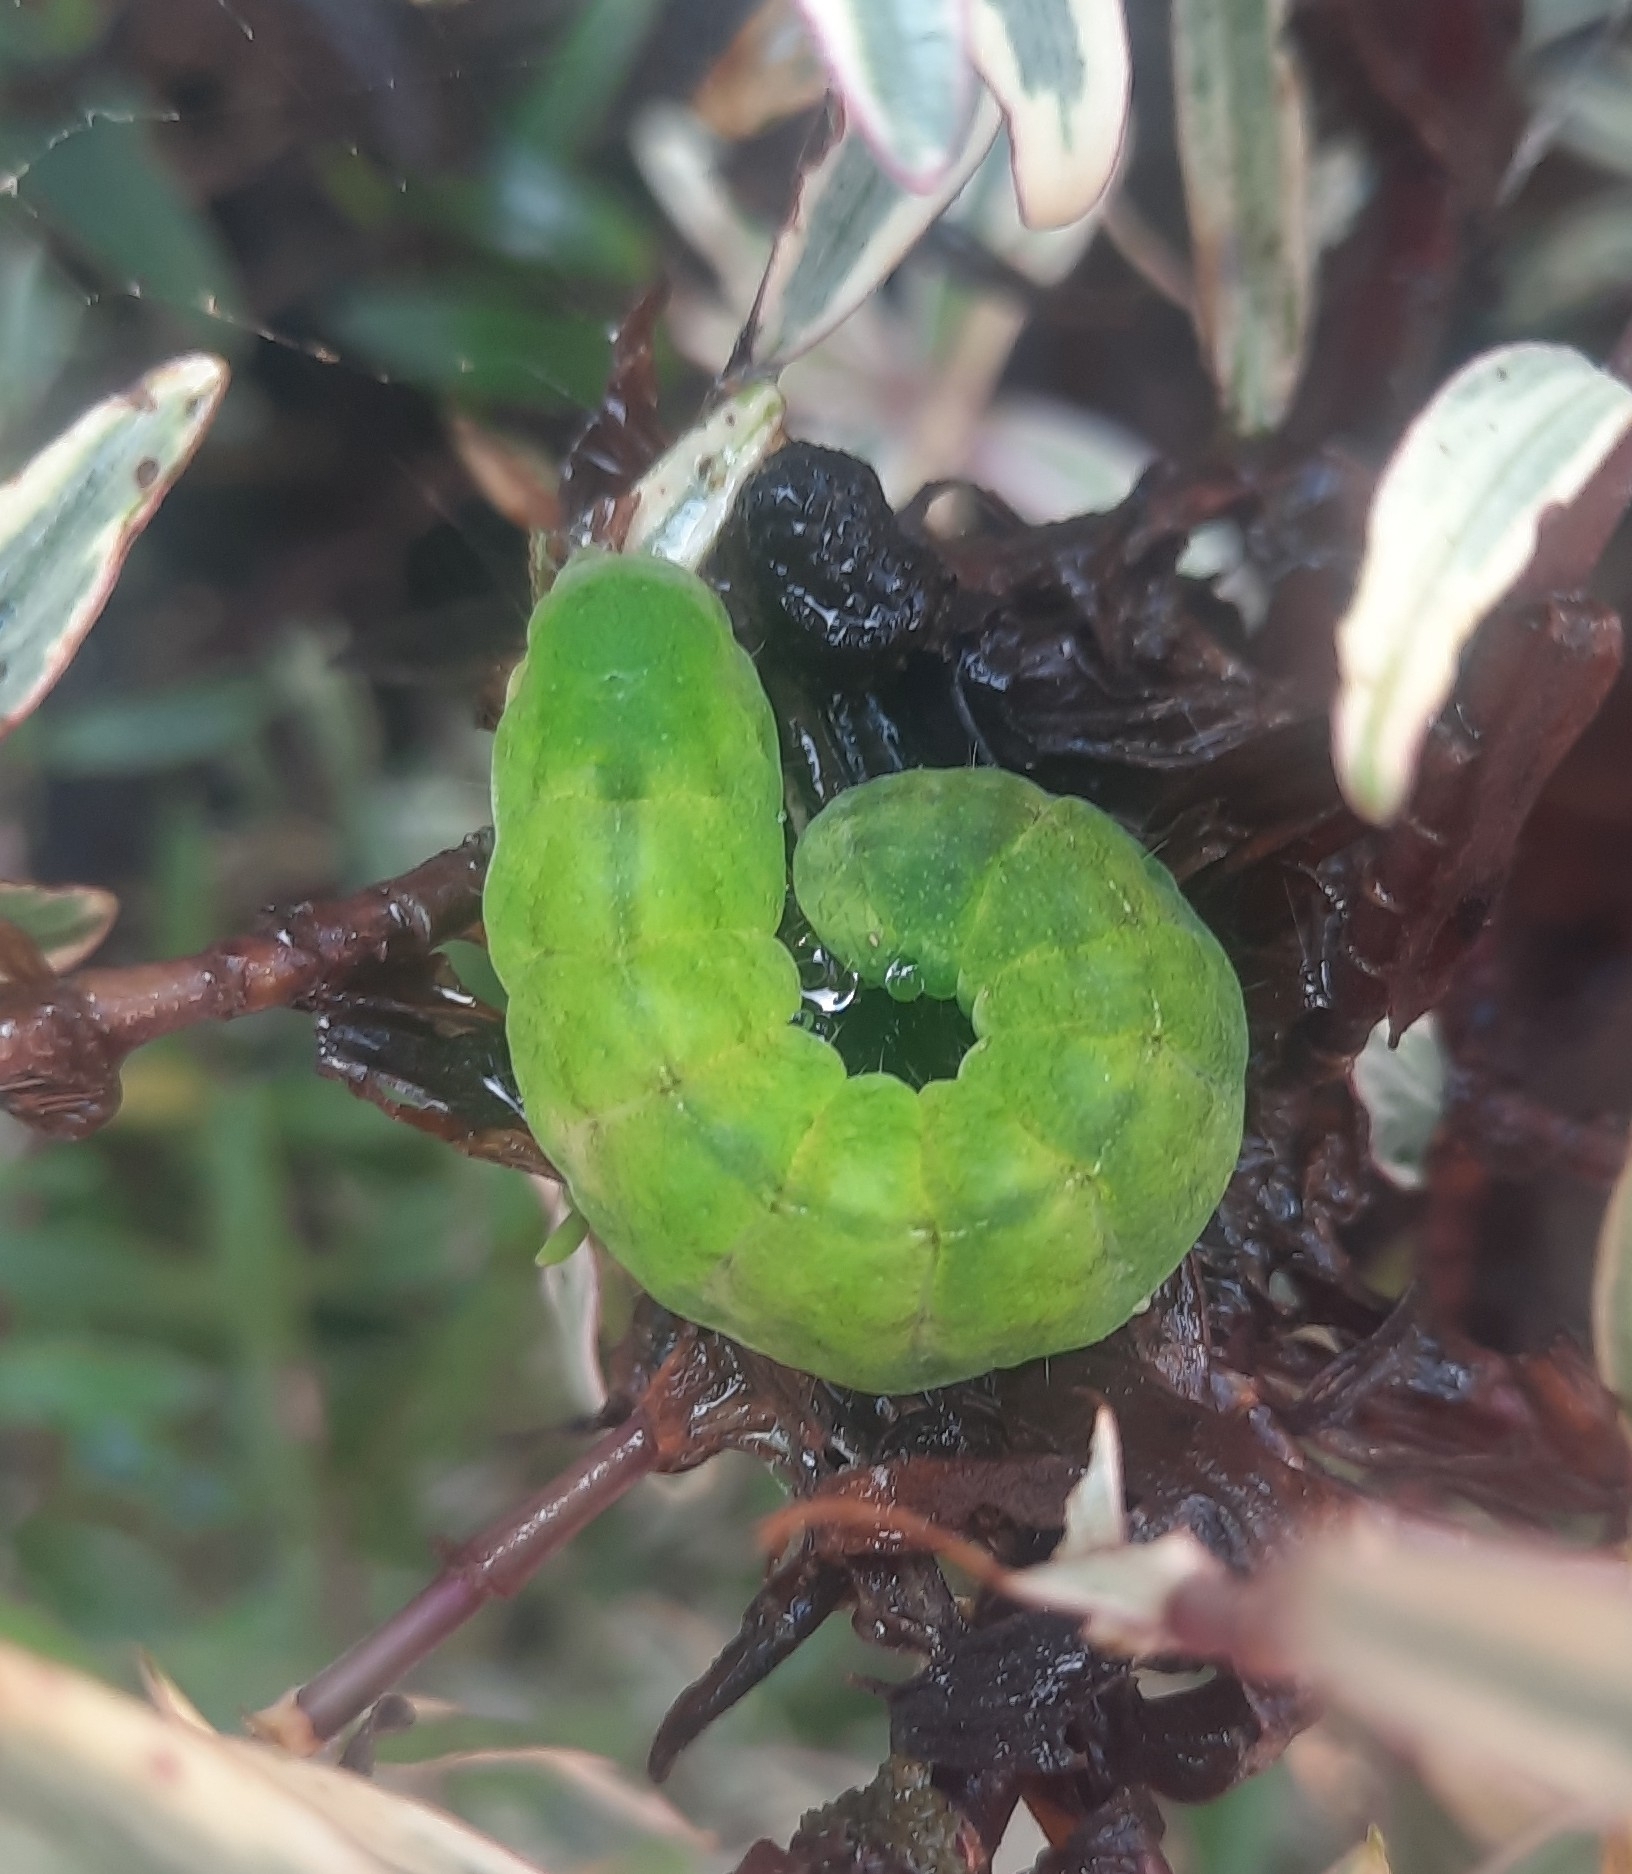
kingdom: Animalia
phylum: Arthropoda
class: Insecta
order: Lepidoptera
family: Noctuidae
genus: Phlogophora
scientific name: Phlogophora meticulosa
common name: Angle shades
